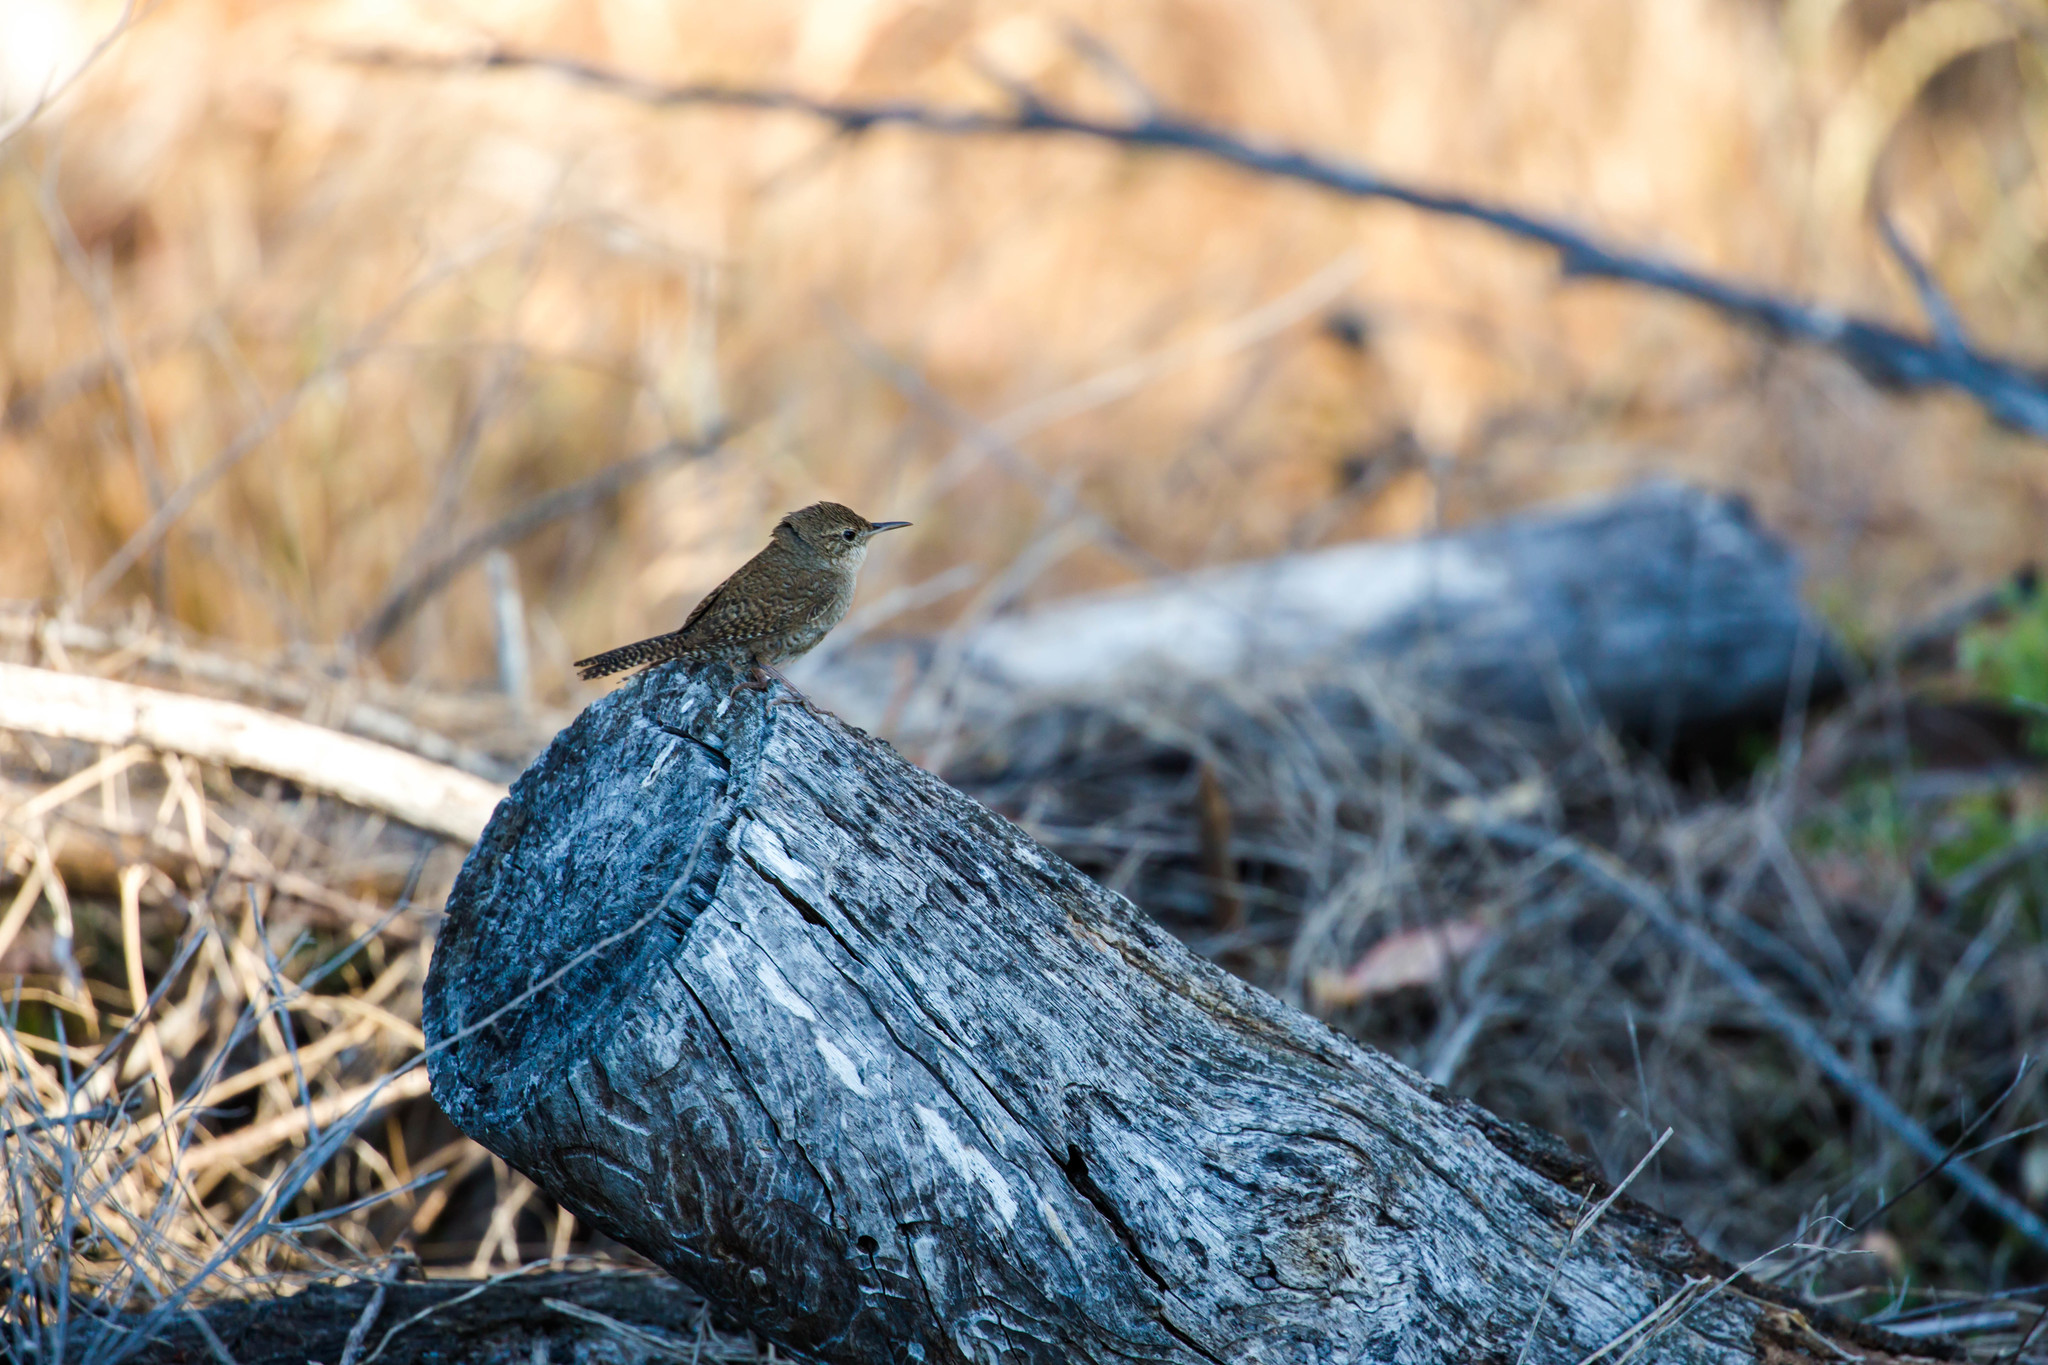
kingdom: Animalia
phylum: Chordata
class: Aves
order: Passeriformes
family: Troglodytidae
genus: Troglodytes
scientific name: Troglodytes aedon
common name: House wren
